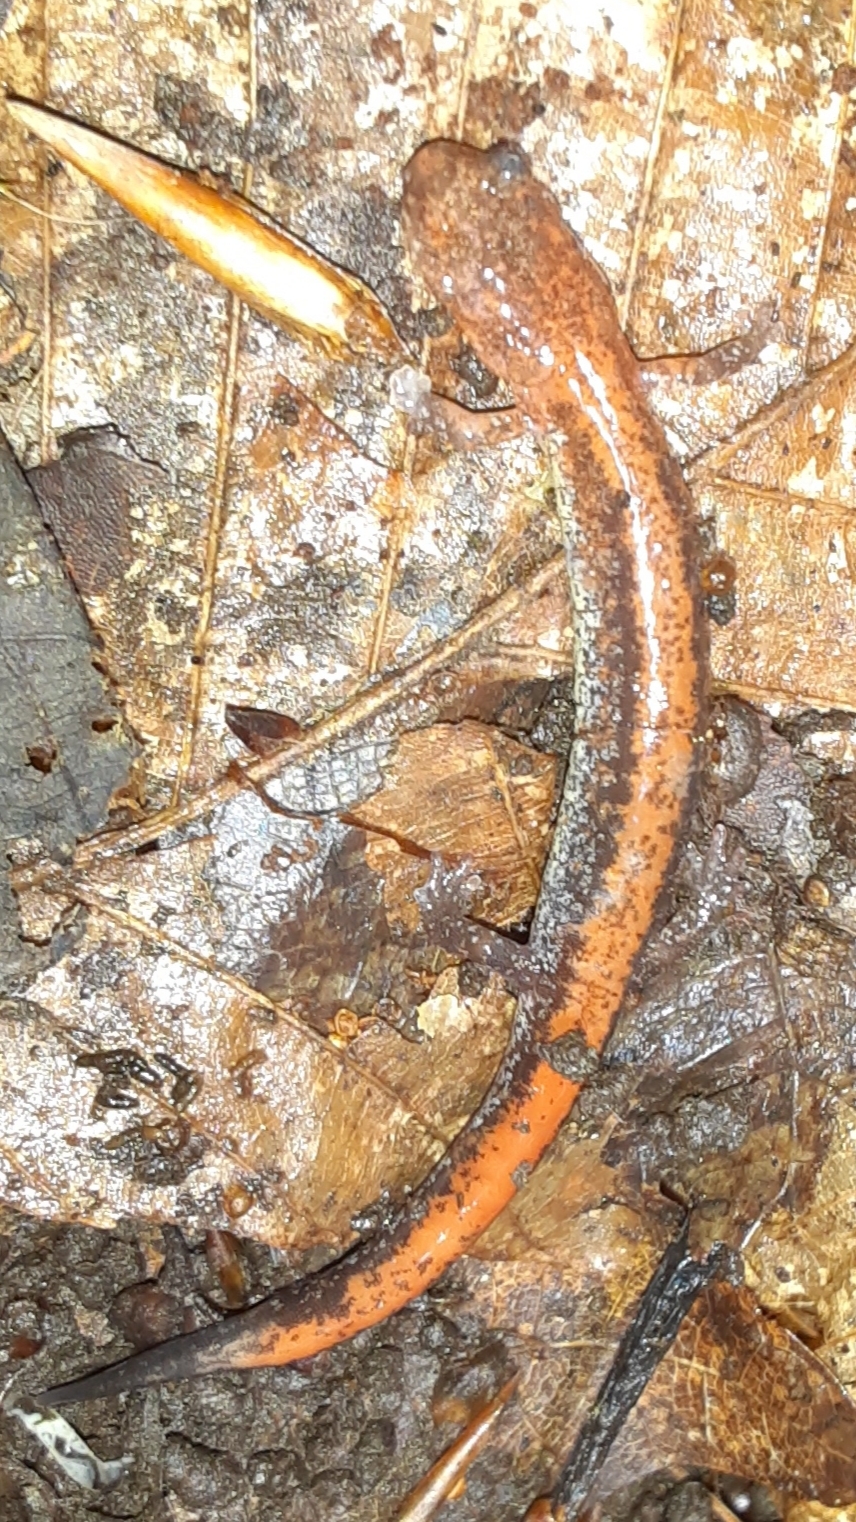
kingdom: Animalia
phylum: Chordata
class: Amphibia
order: Caudata
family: Plethodontidae
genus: Plethodon
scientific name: Plethodon cinereus
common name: Redback salamander
